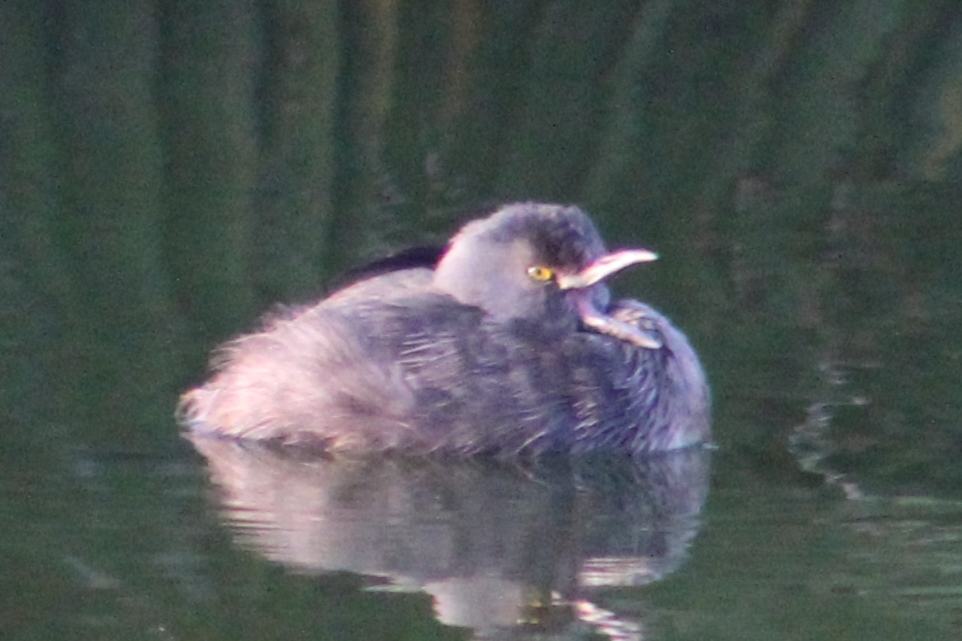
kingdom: Animalia
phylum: Chordata
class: Aves
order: Podicipediformes
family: Podicipedidae
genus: Tachybaptus
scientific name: Tachybaptus dominicus
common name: Least grebe
